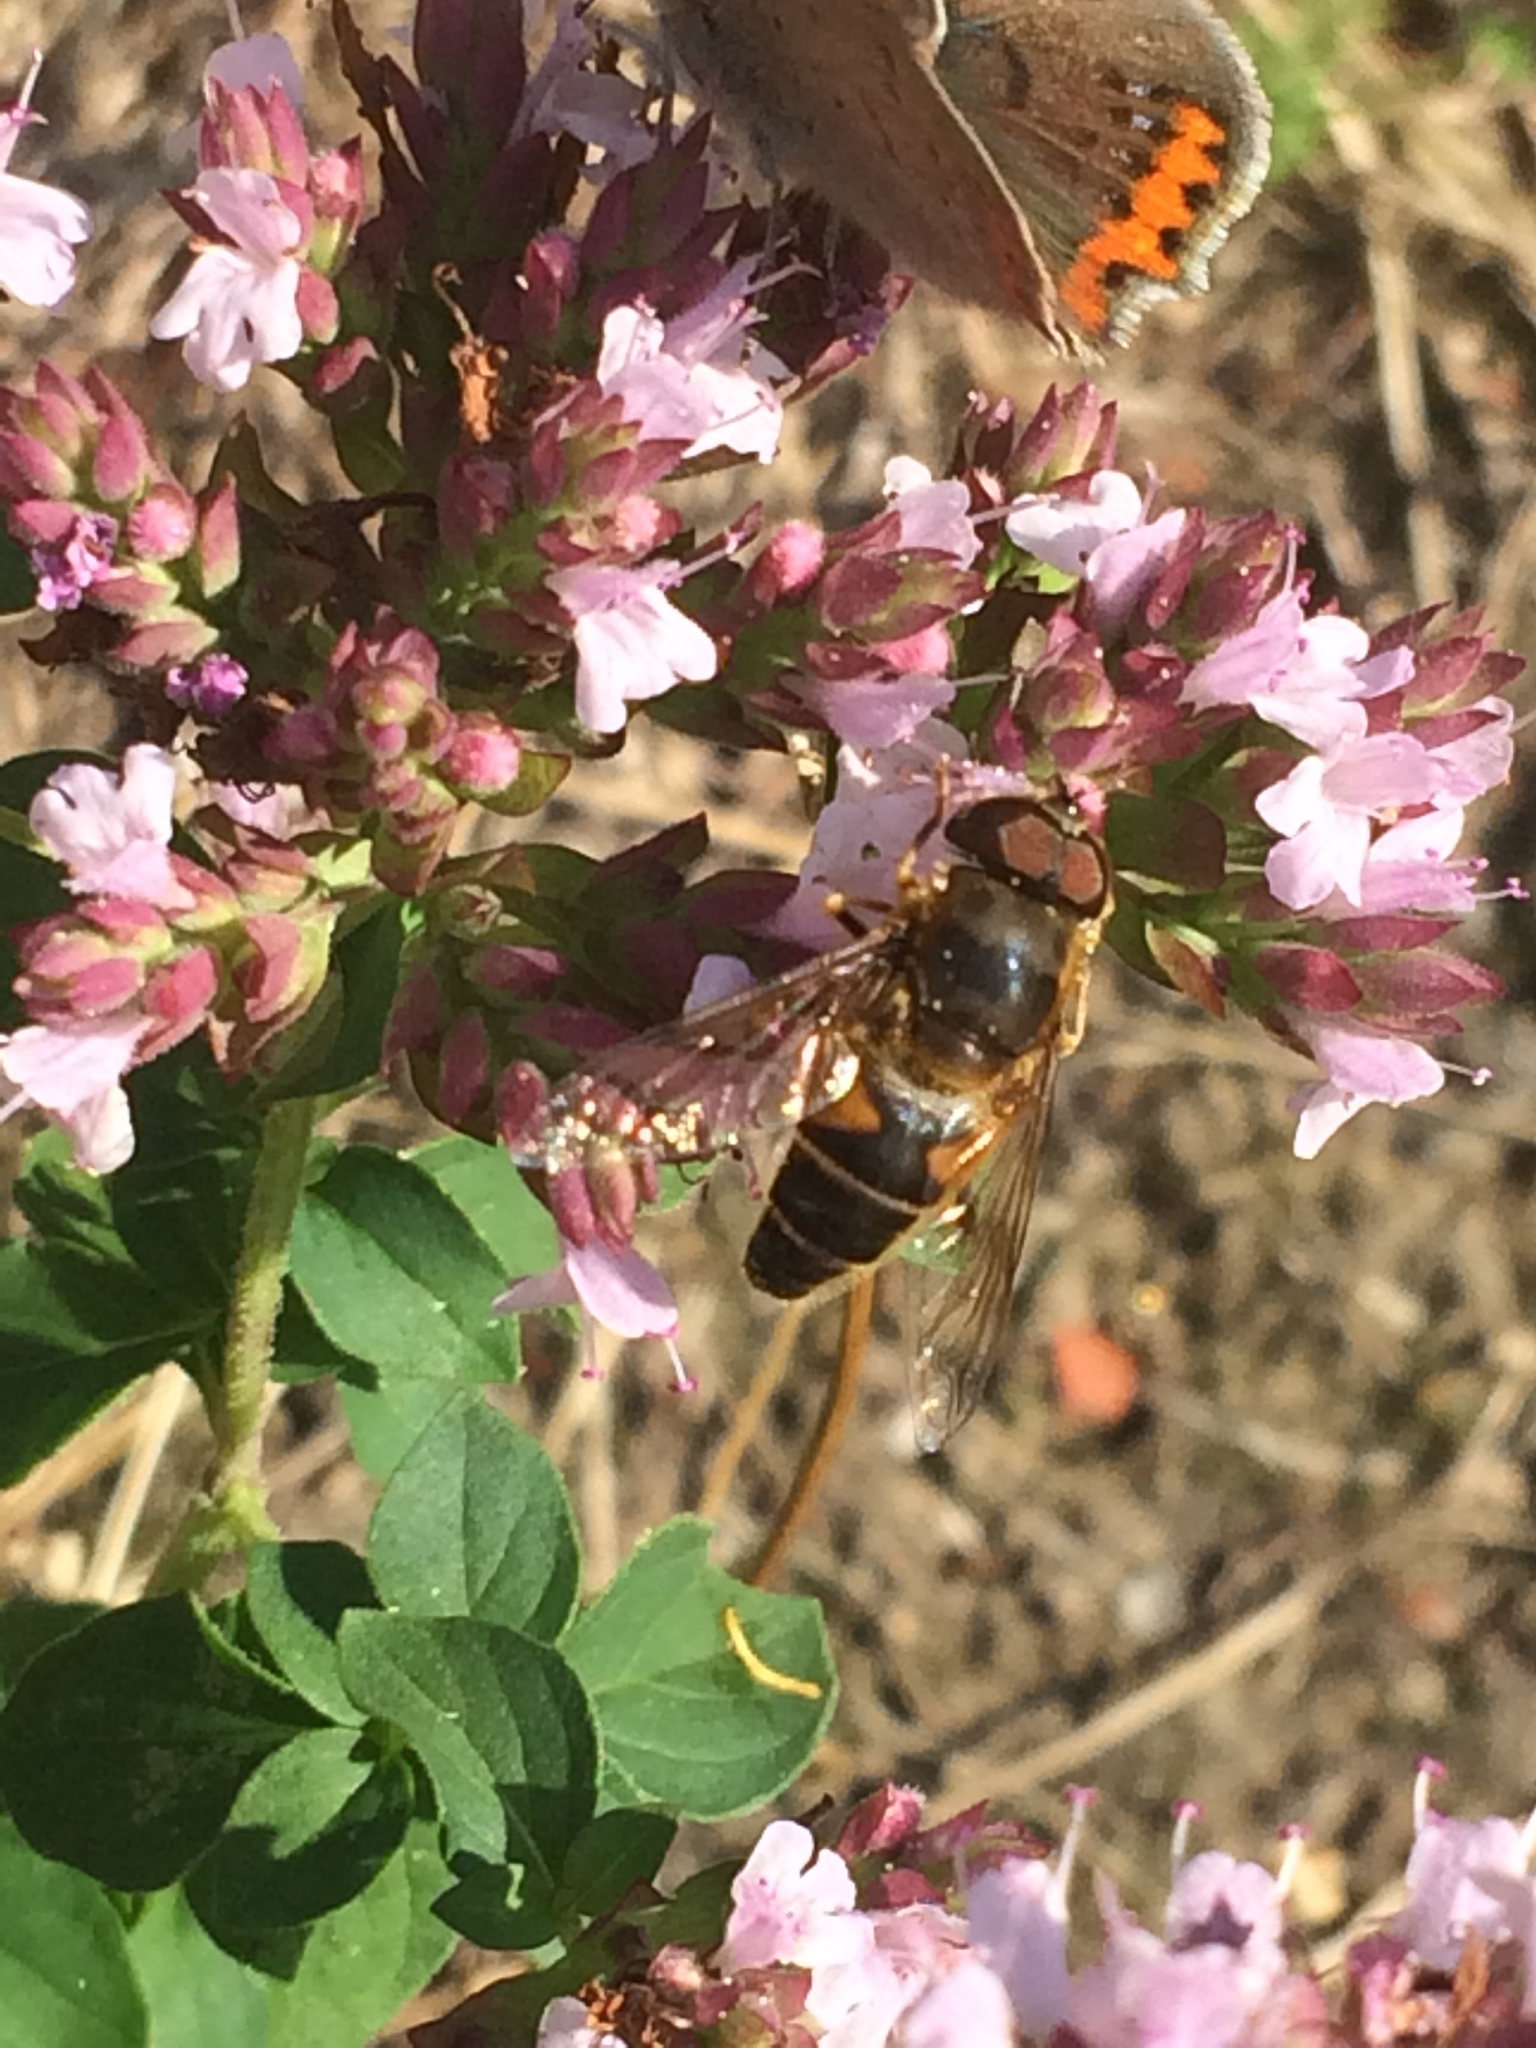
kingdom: Animalia
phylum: Arthropoda
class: Insecta
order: Diptera
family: Syrphidae
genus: Eristalis
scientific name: Eristalis pertinax
